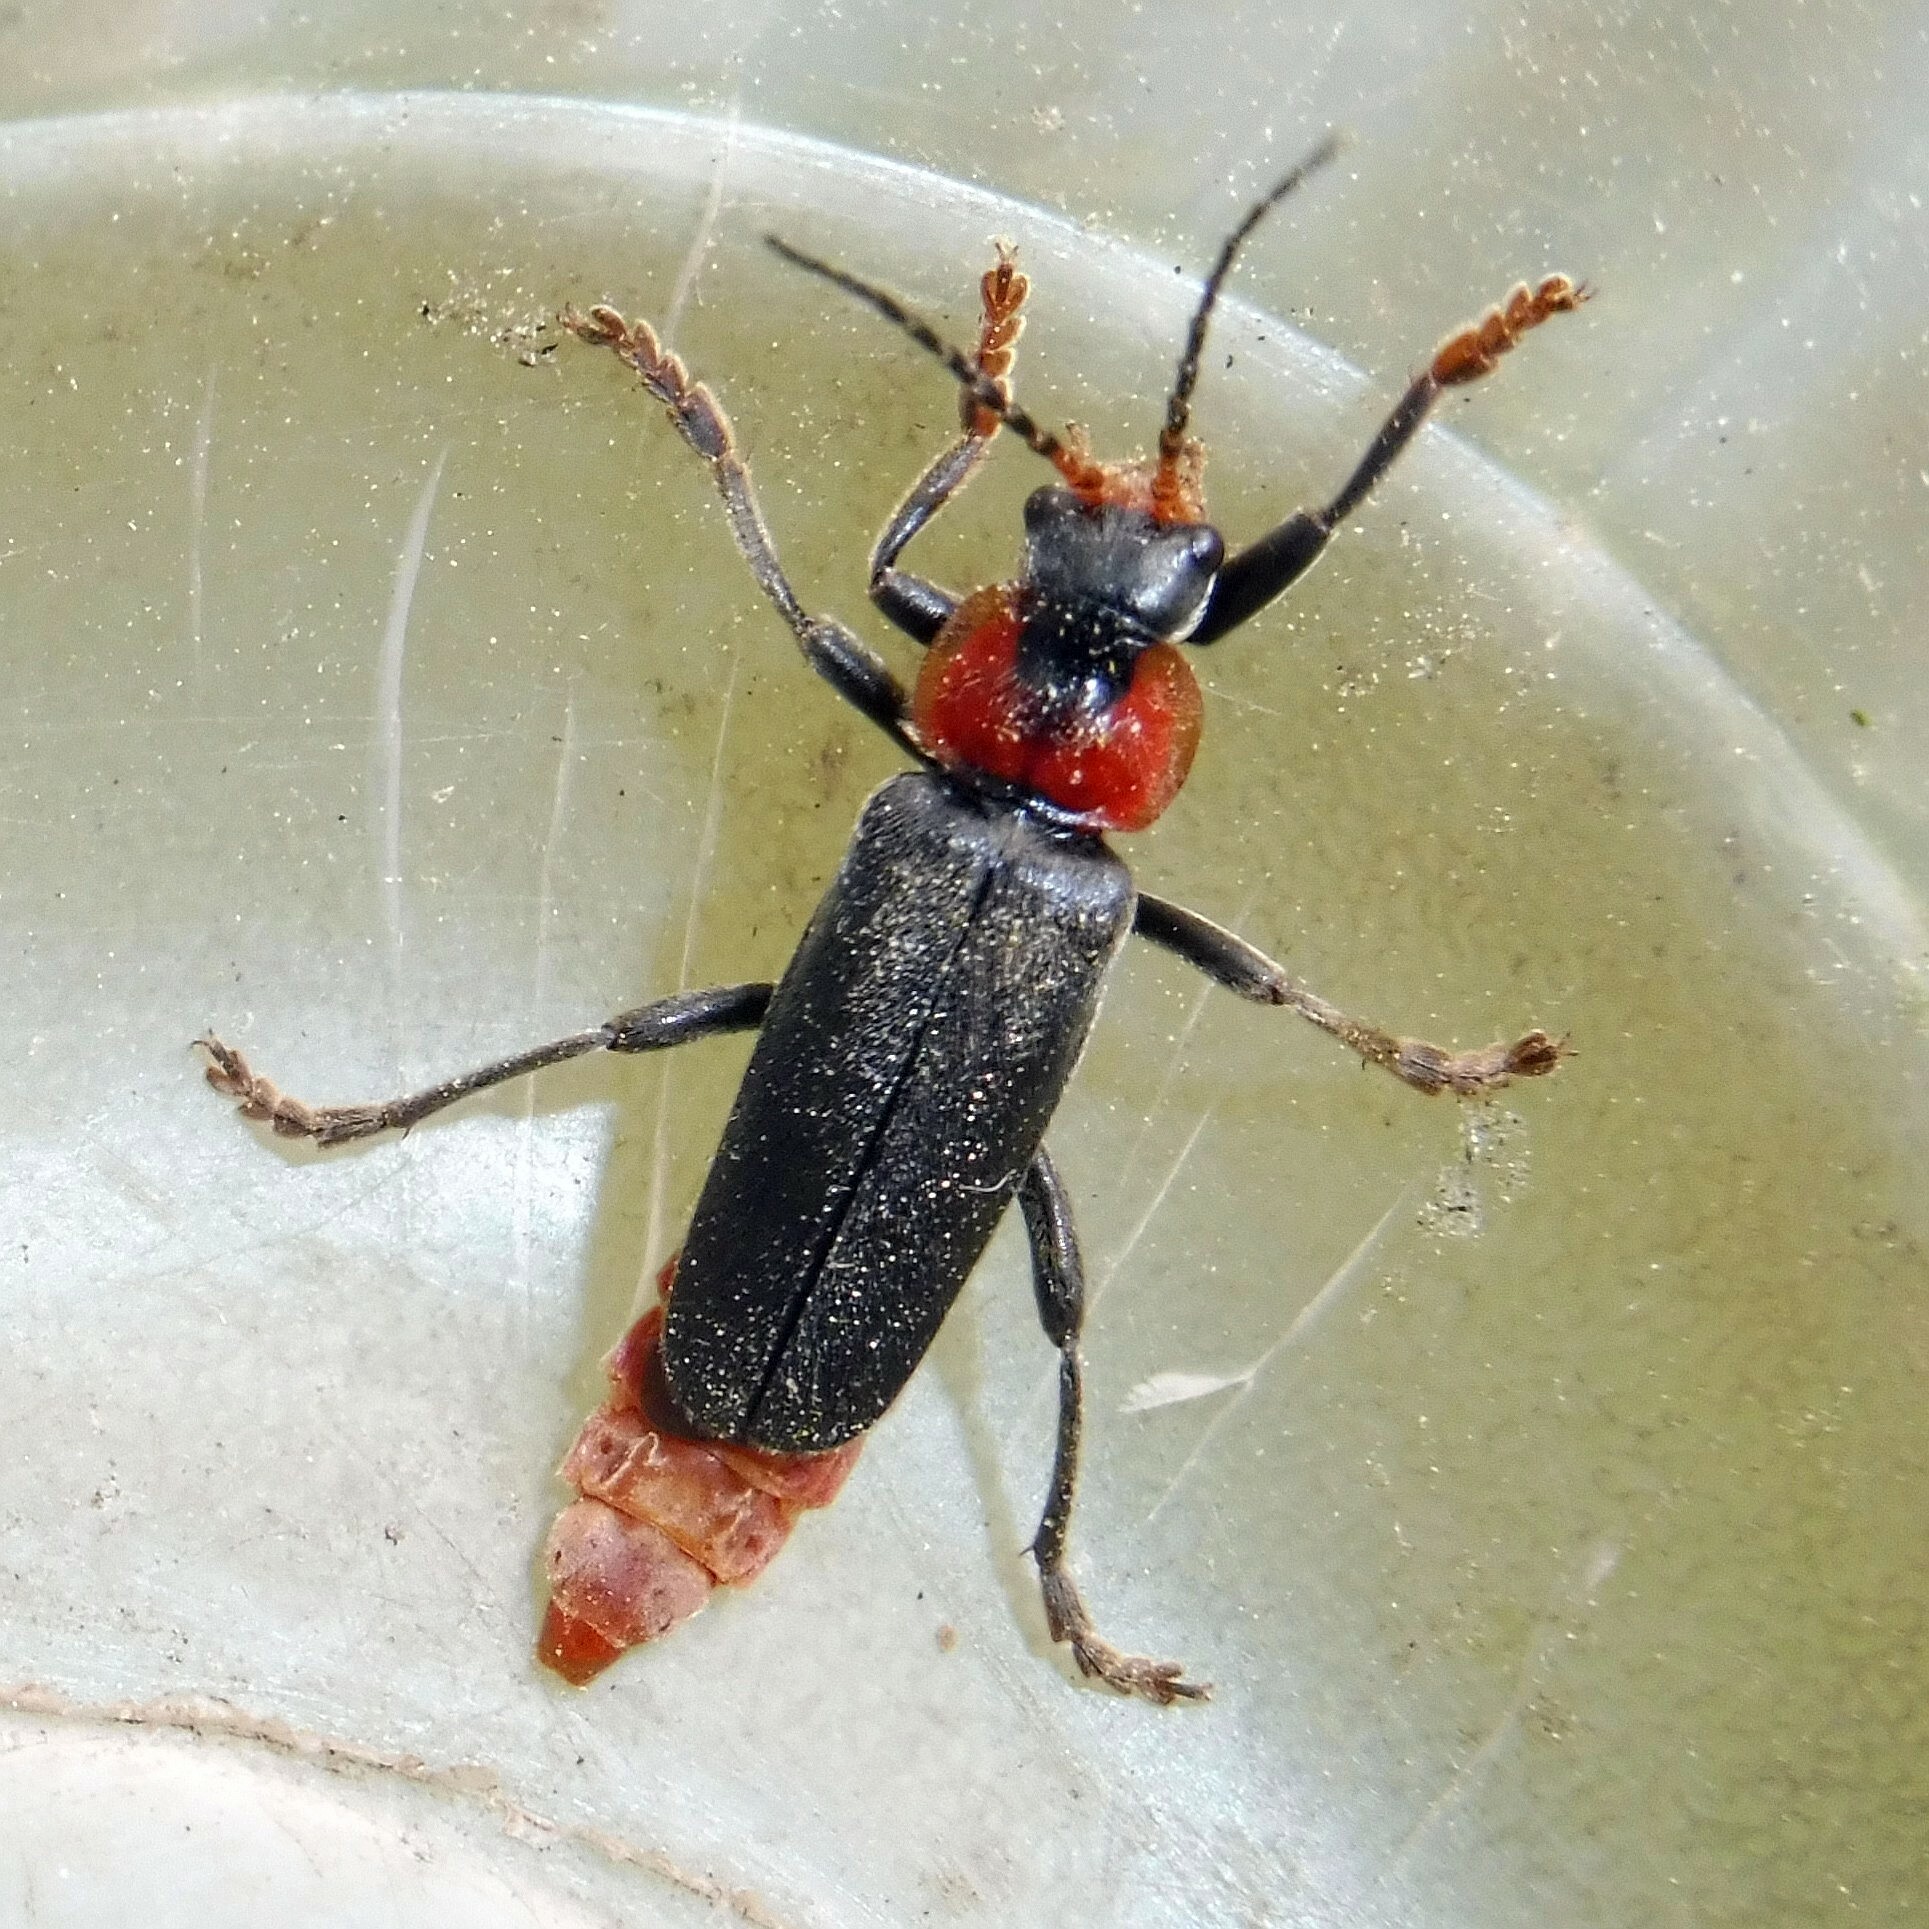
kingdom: Animalia
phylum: Arthropoda
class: Insecta
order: Coleoptera
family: Cantharidae
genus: Cantharis
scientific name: Cantharis fusca
